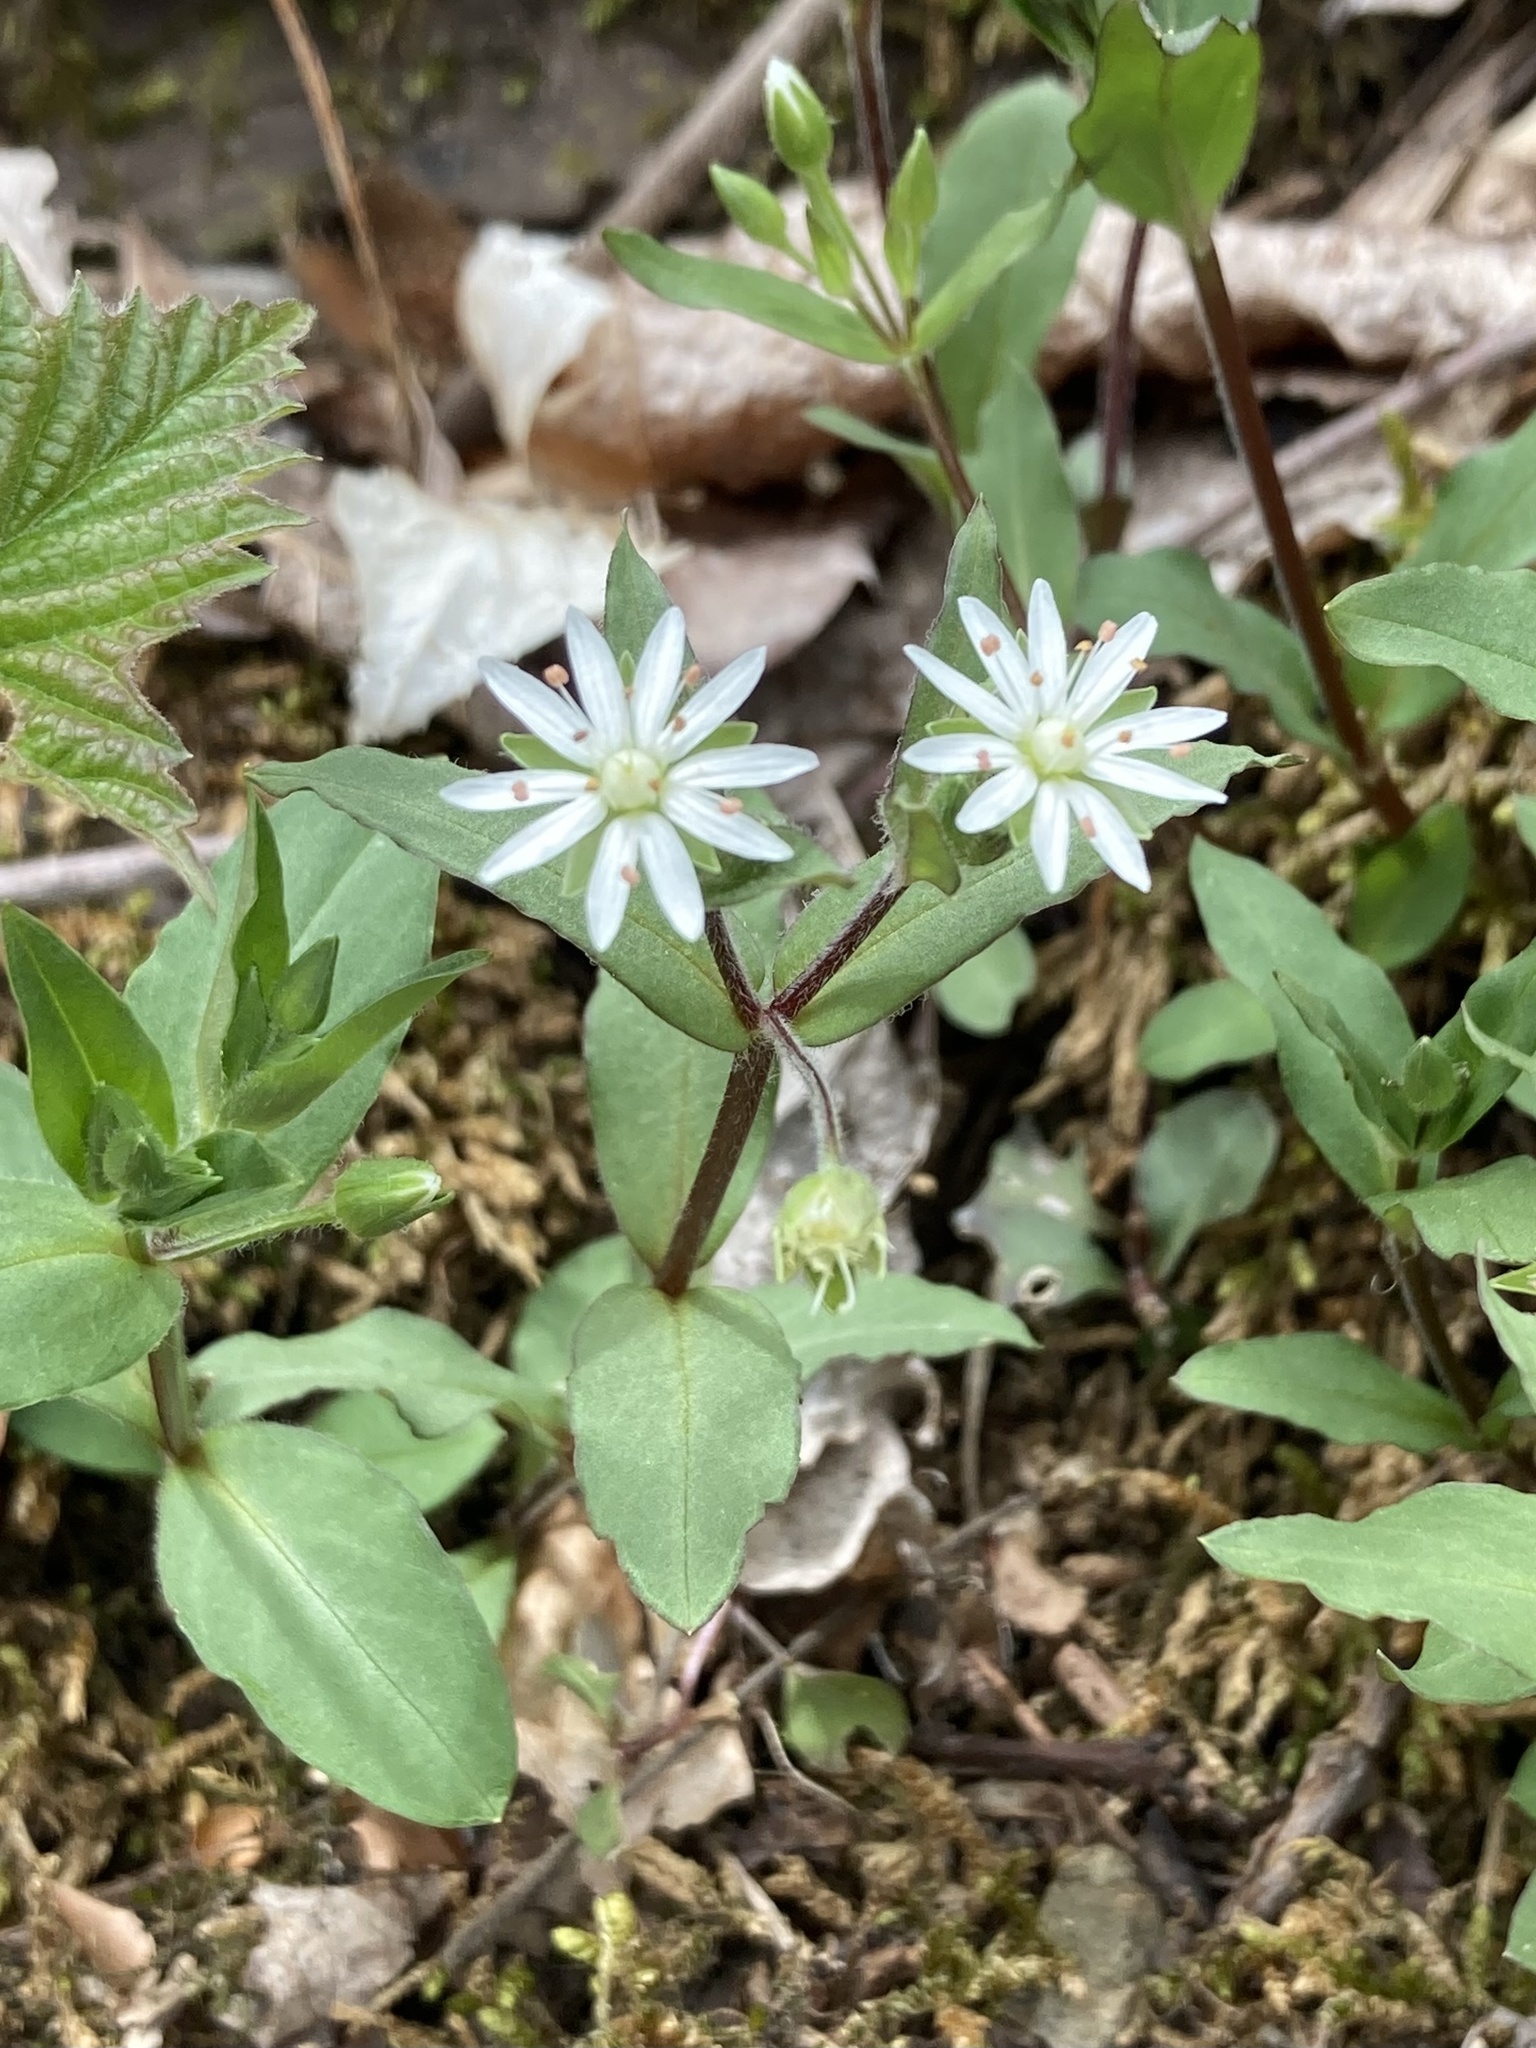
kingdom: Plantae
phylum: Tracheophyta
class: Magnoliopsida
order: Caryophyllales
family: Caryophyllaceae
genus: Stellaria
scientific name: Stellaria pubera
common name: Star chickweed
